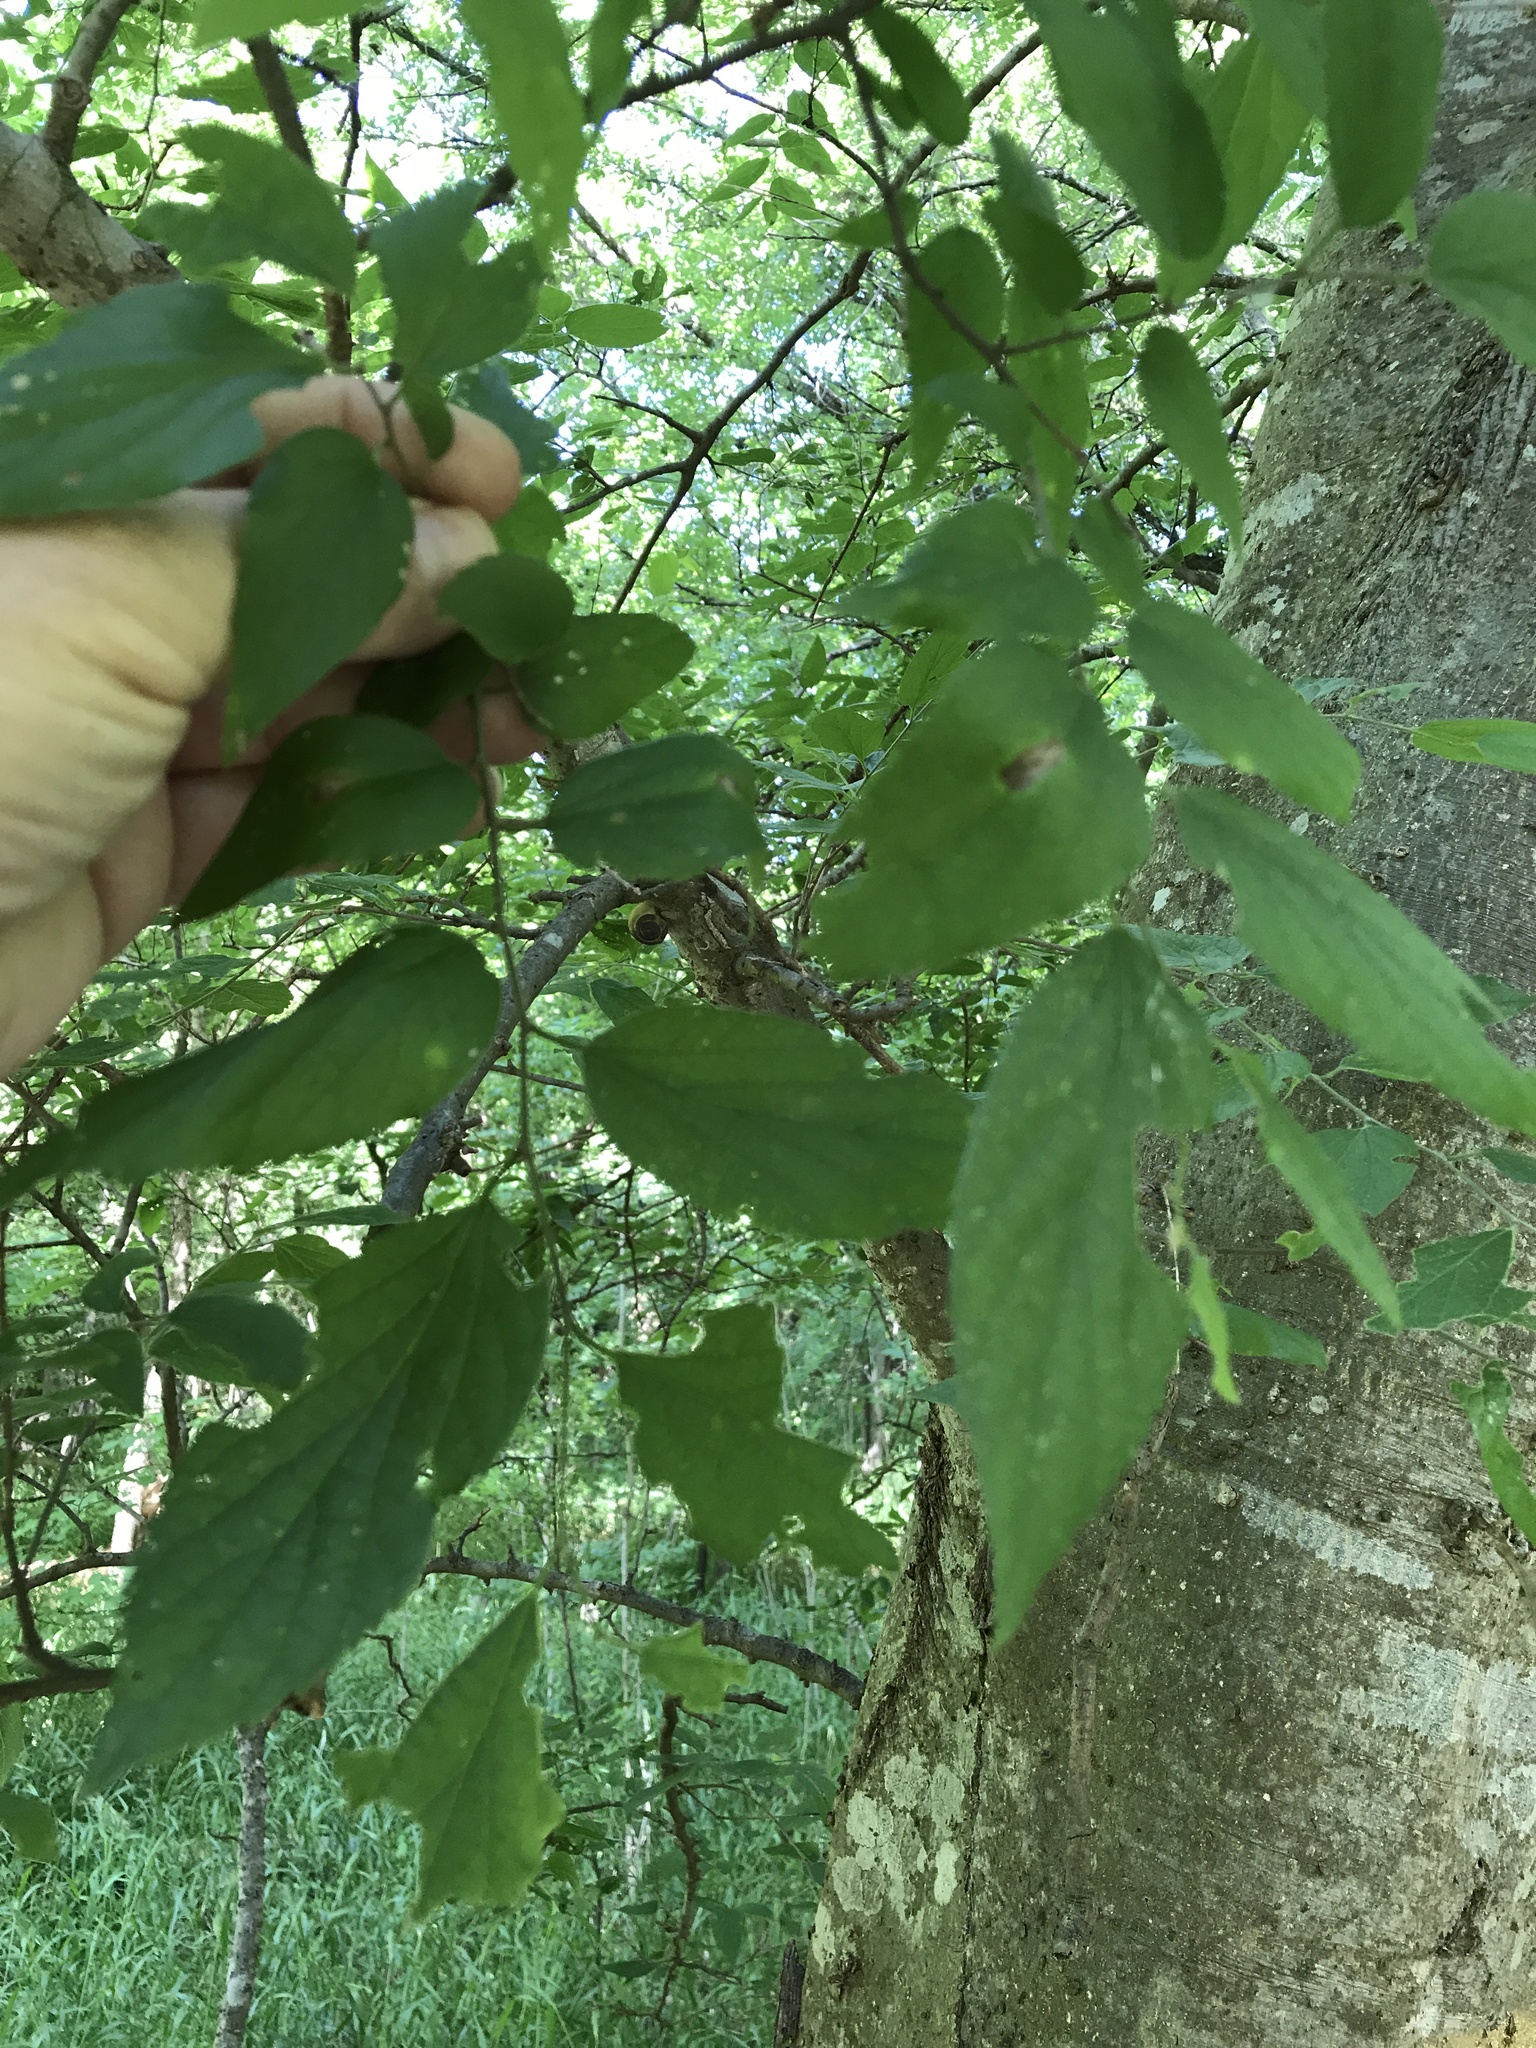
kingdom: Plantae
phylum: Tracheophyta
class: Magnoliopsida
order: Rosales
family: Cannabaceae
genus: Celtis
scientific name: Celtis laevigata
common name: Sugarberry
